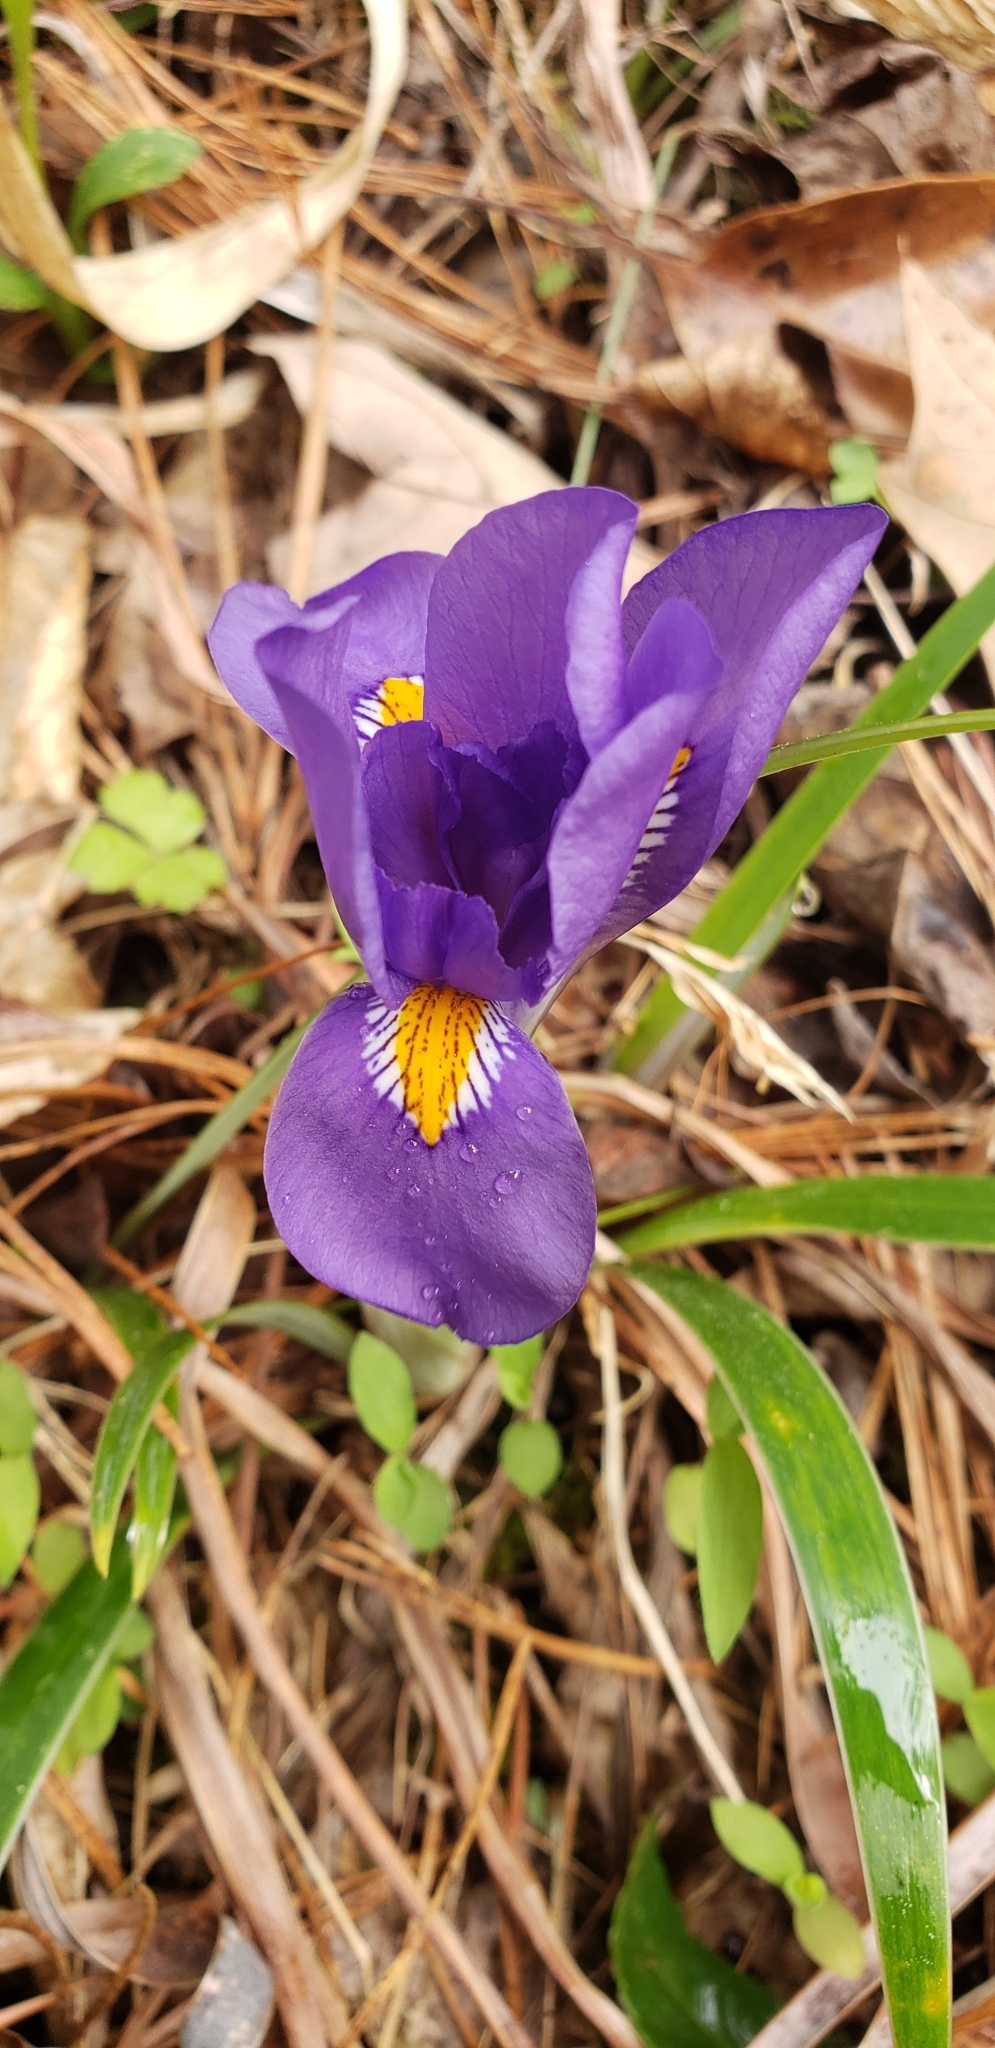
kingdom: Plantae
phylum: Tracheophyta
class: Liliopsida
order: Asparagales
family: Iridaceae
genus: Iris
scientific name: Iris verna
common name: Dwarf iris
